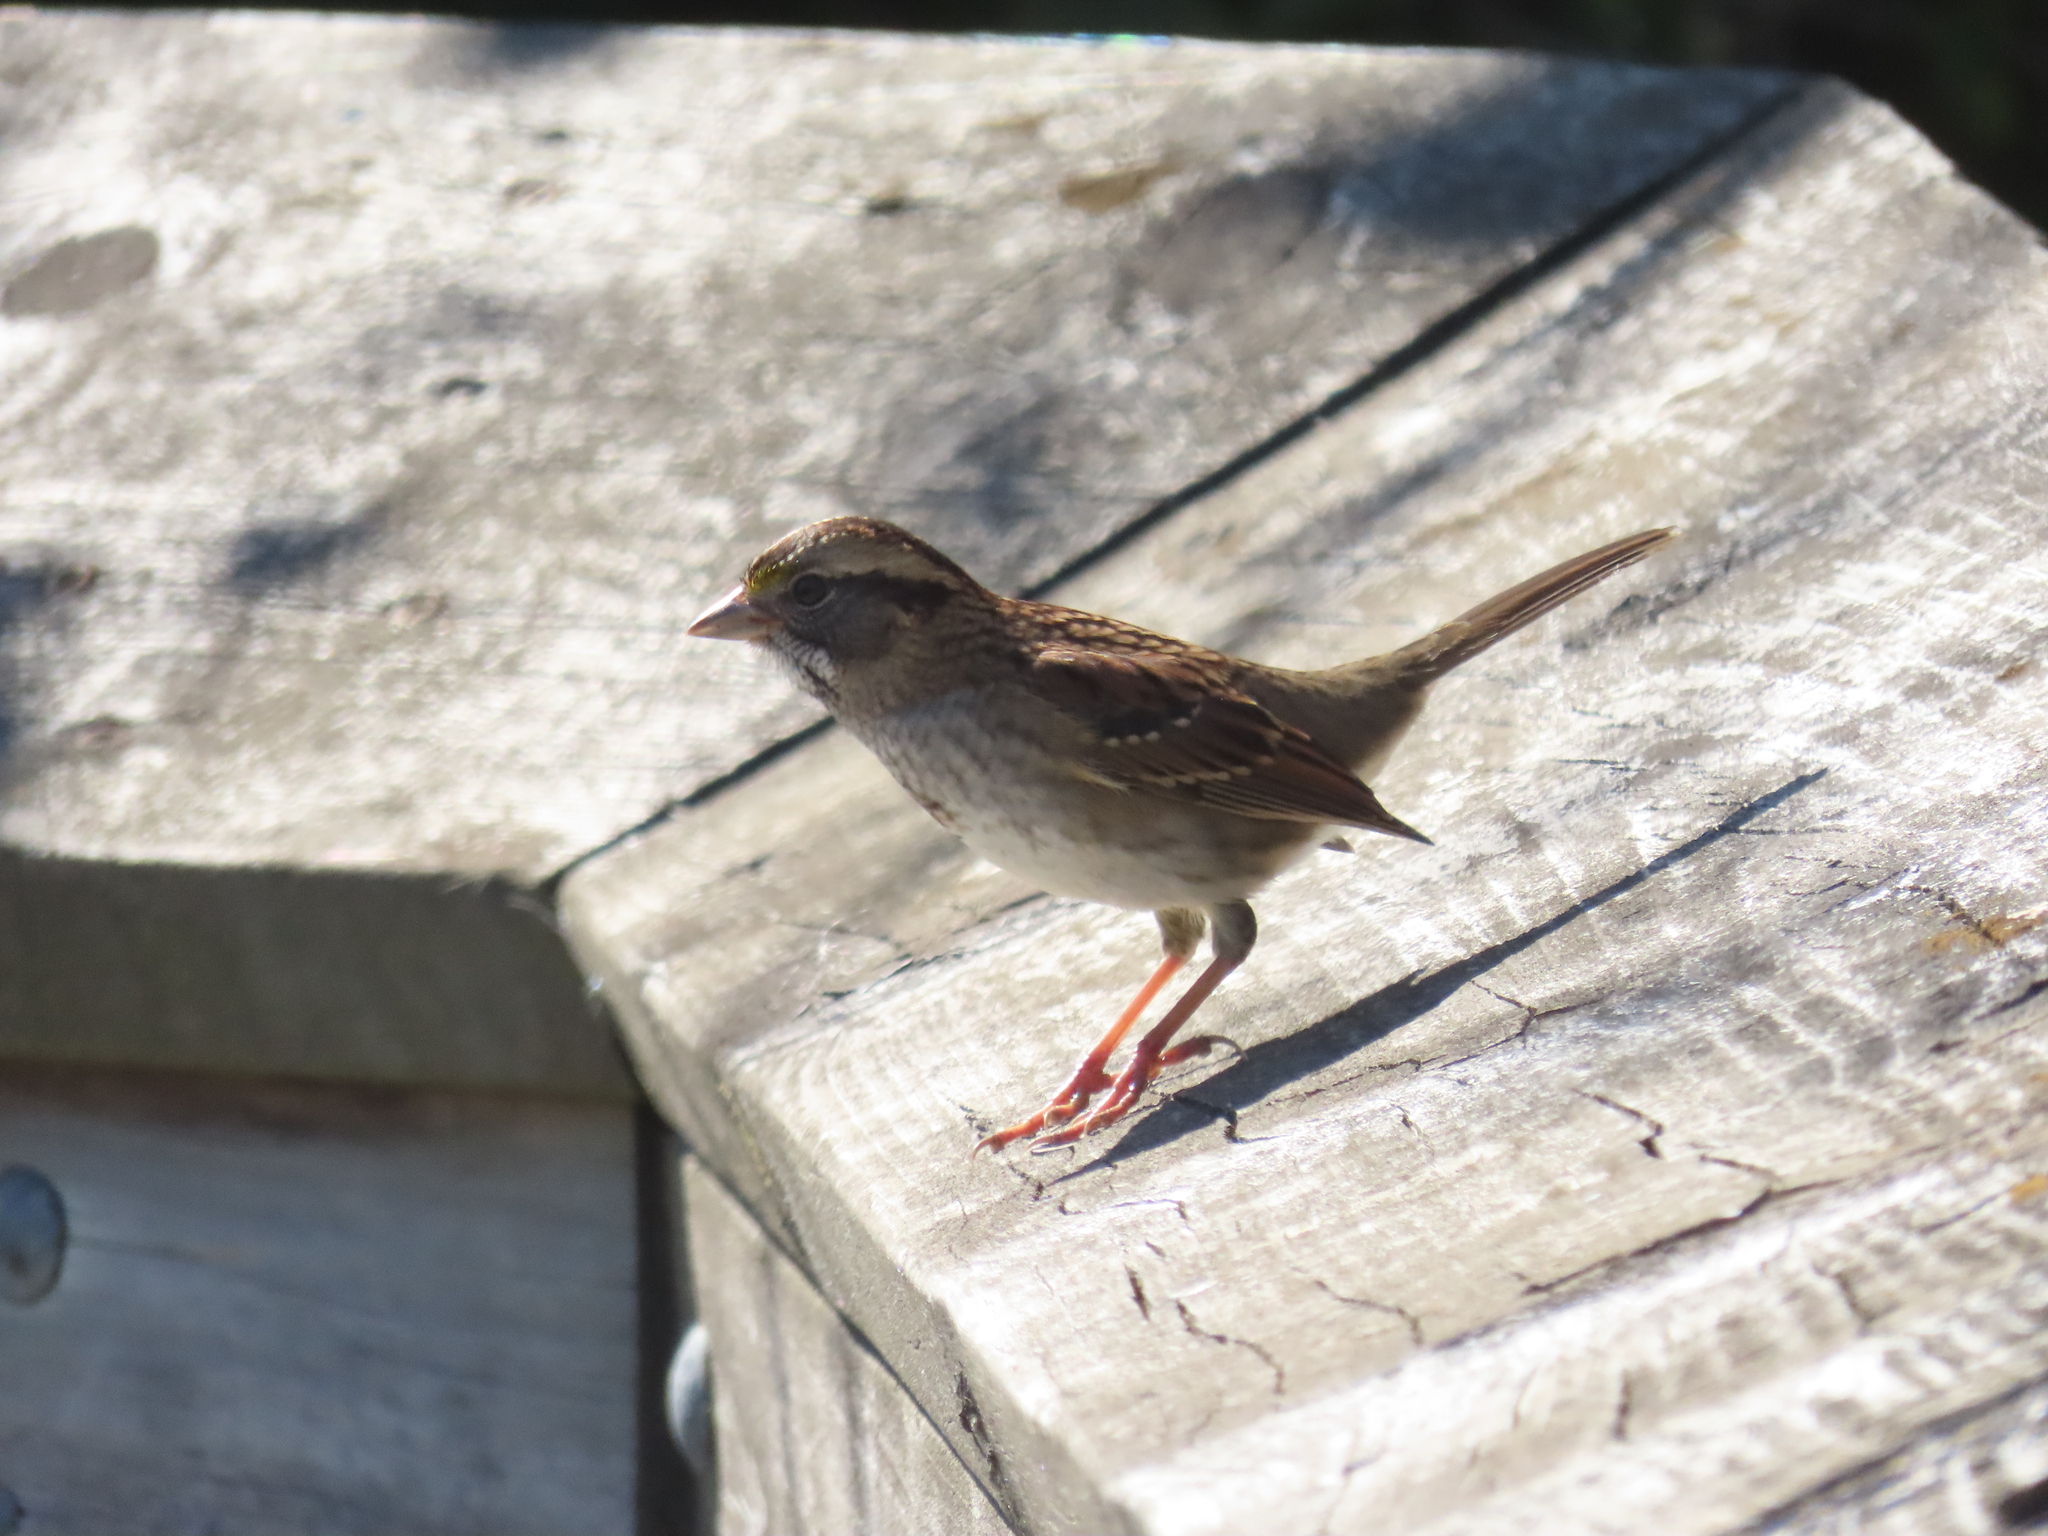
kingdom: Animalia
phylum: Chordata
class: Aves
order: Passeriformes
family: Passerellidae
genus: Zonotrichia
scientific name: Zonotrichia albicollis
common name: White-throated sparrow
